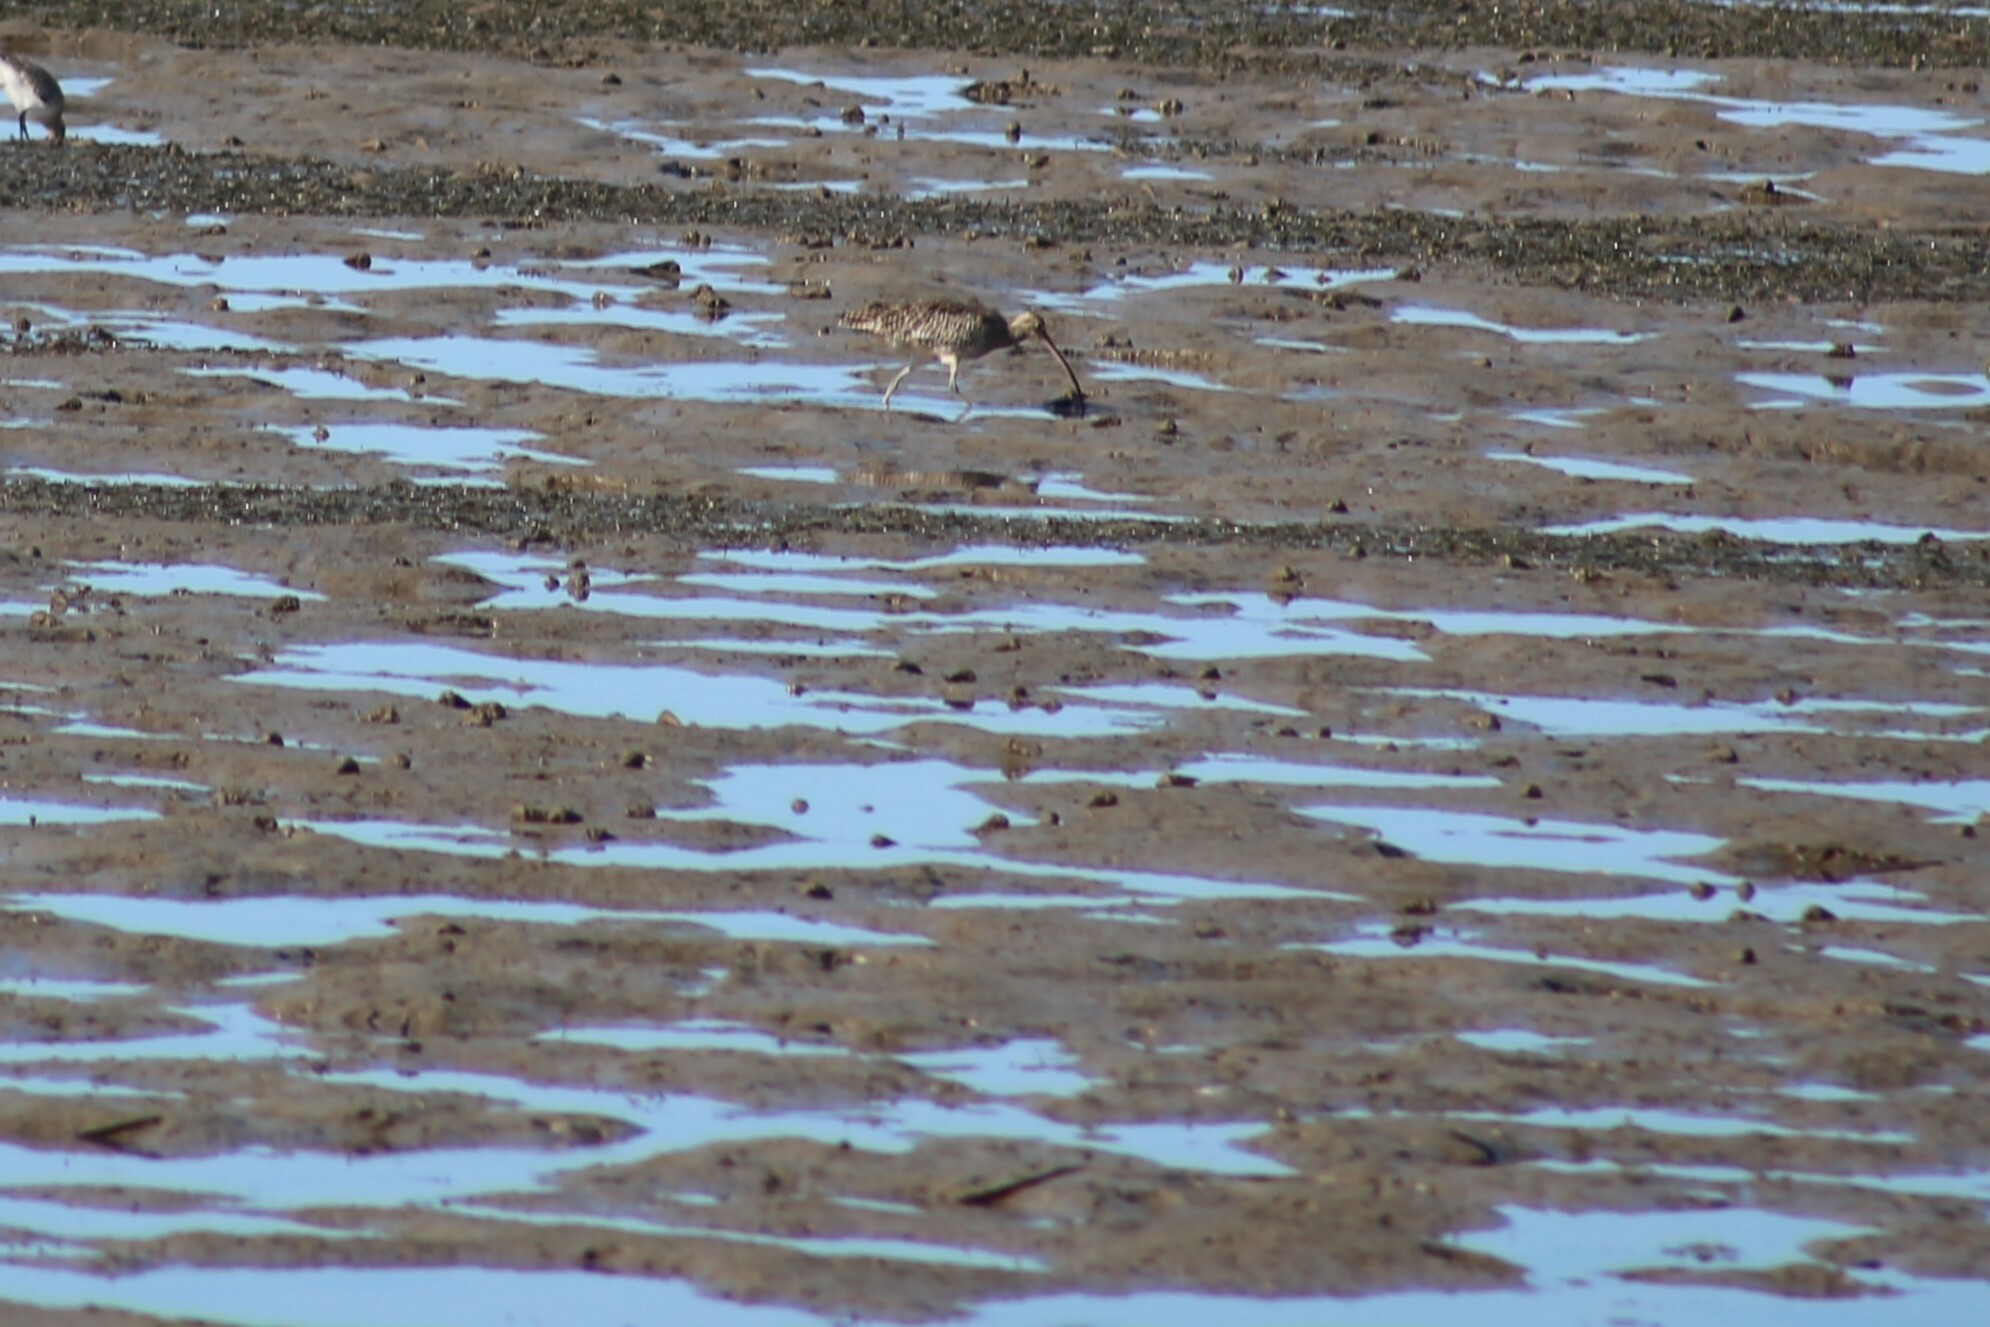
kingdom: Animalia
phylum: Chordata
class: Aves
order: Charadriiformes
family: Scolopacidae
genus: Numenius
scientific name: Numenius madagascariensis
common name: Far eastern curlew
